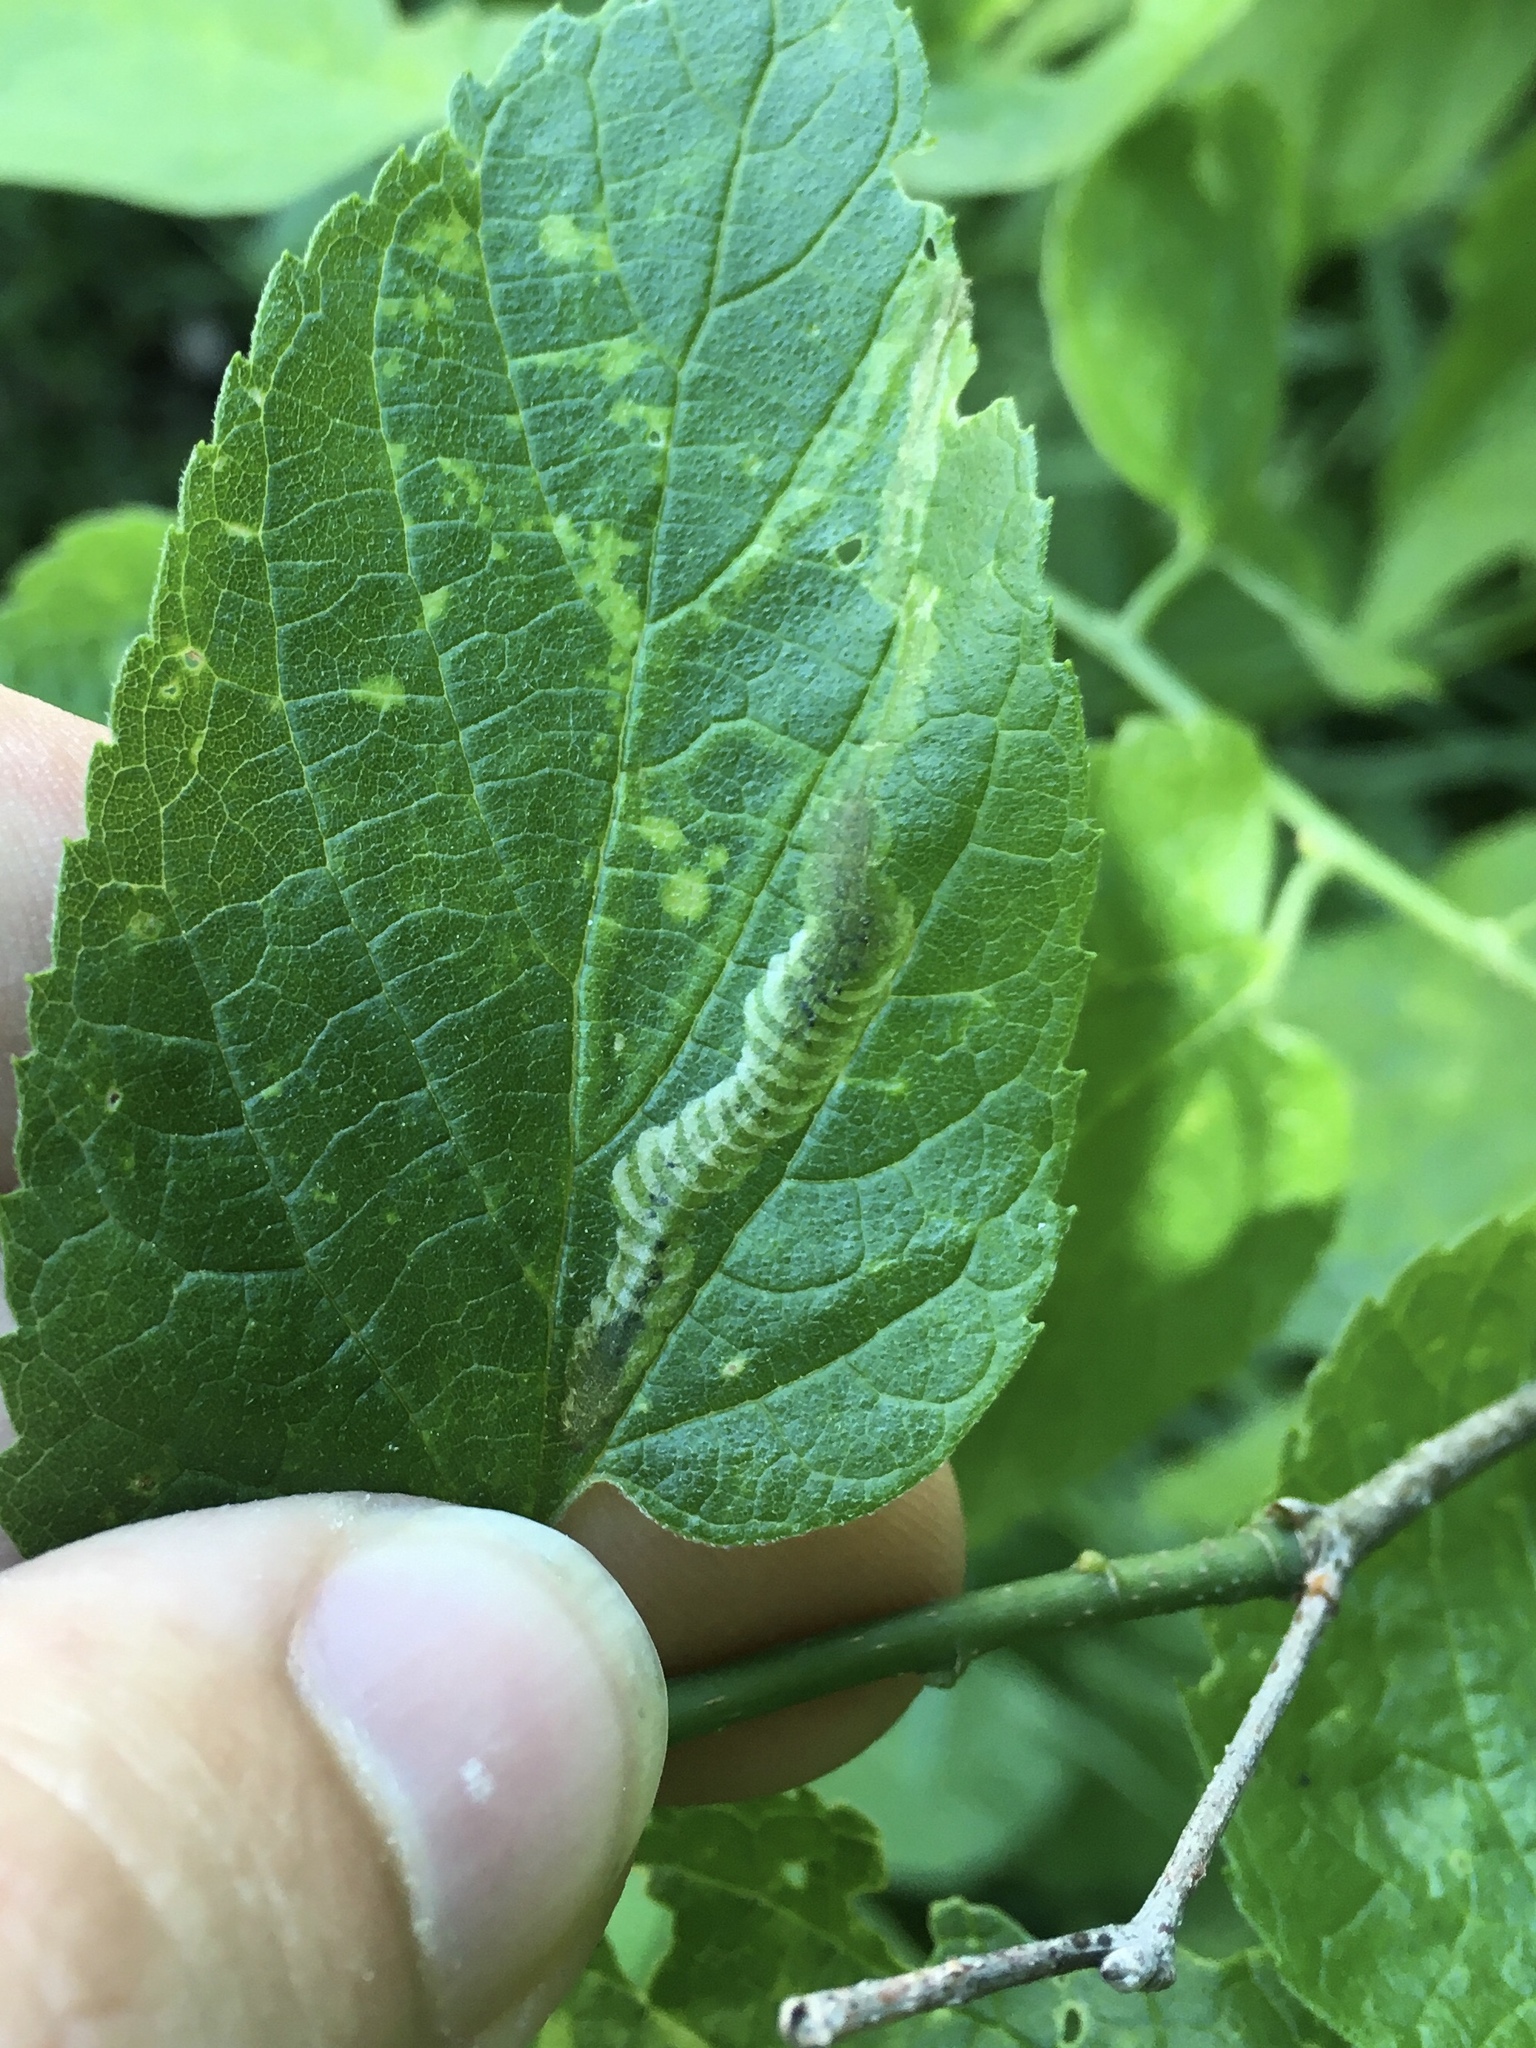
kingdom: Animalia
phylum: Arthropoda
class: Insecta
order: Diptera
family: Agromyzidae
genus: Agromyza
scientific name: Agromyza aristata
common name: Elm agromyzid leafminer
